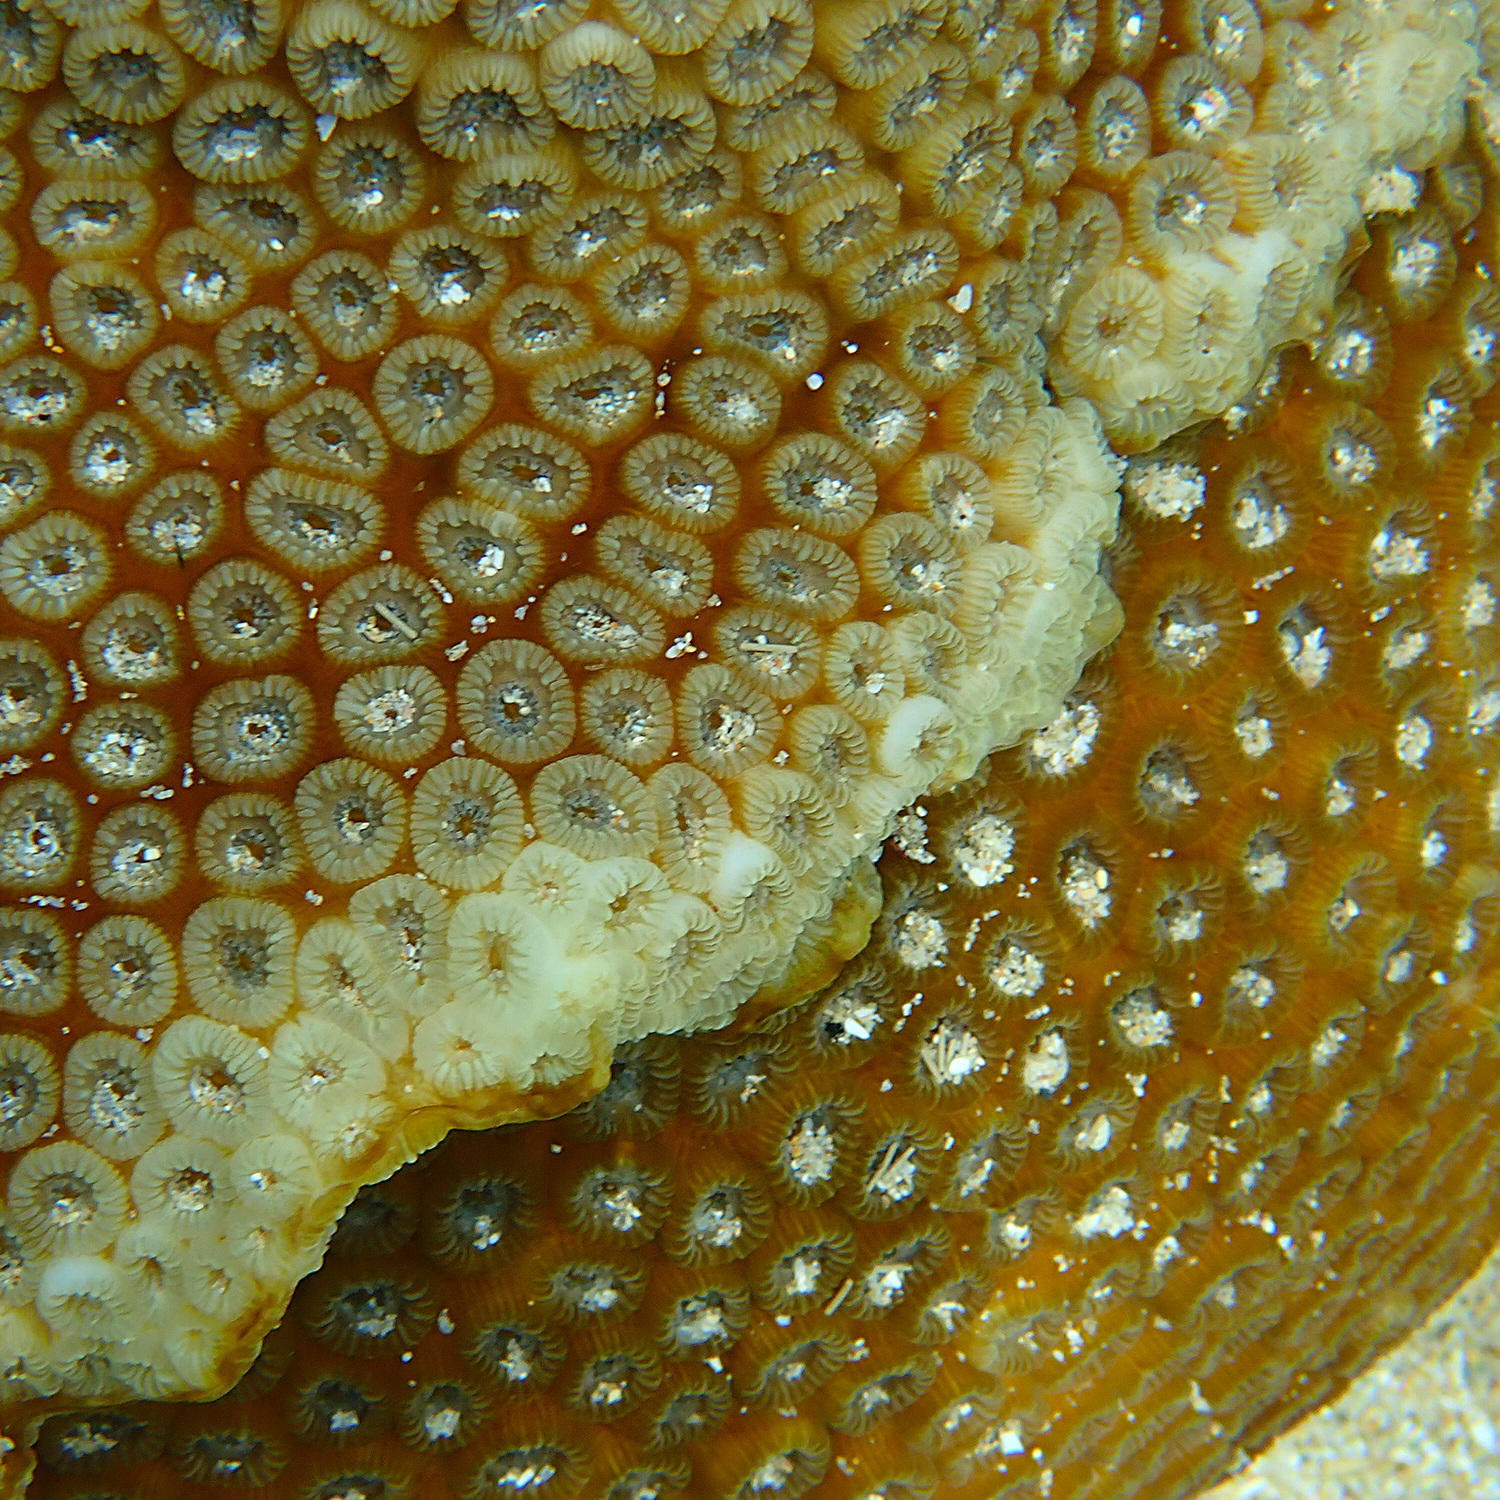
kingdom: Animalia
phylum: Cnidaria
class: Anthozoa
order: Scleractinia
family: Merulinidae
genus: Astrea
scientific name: Astrea curta
